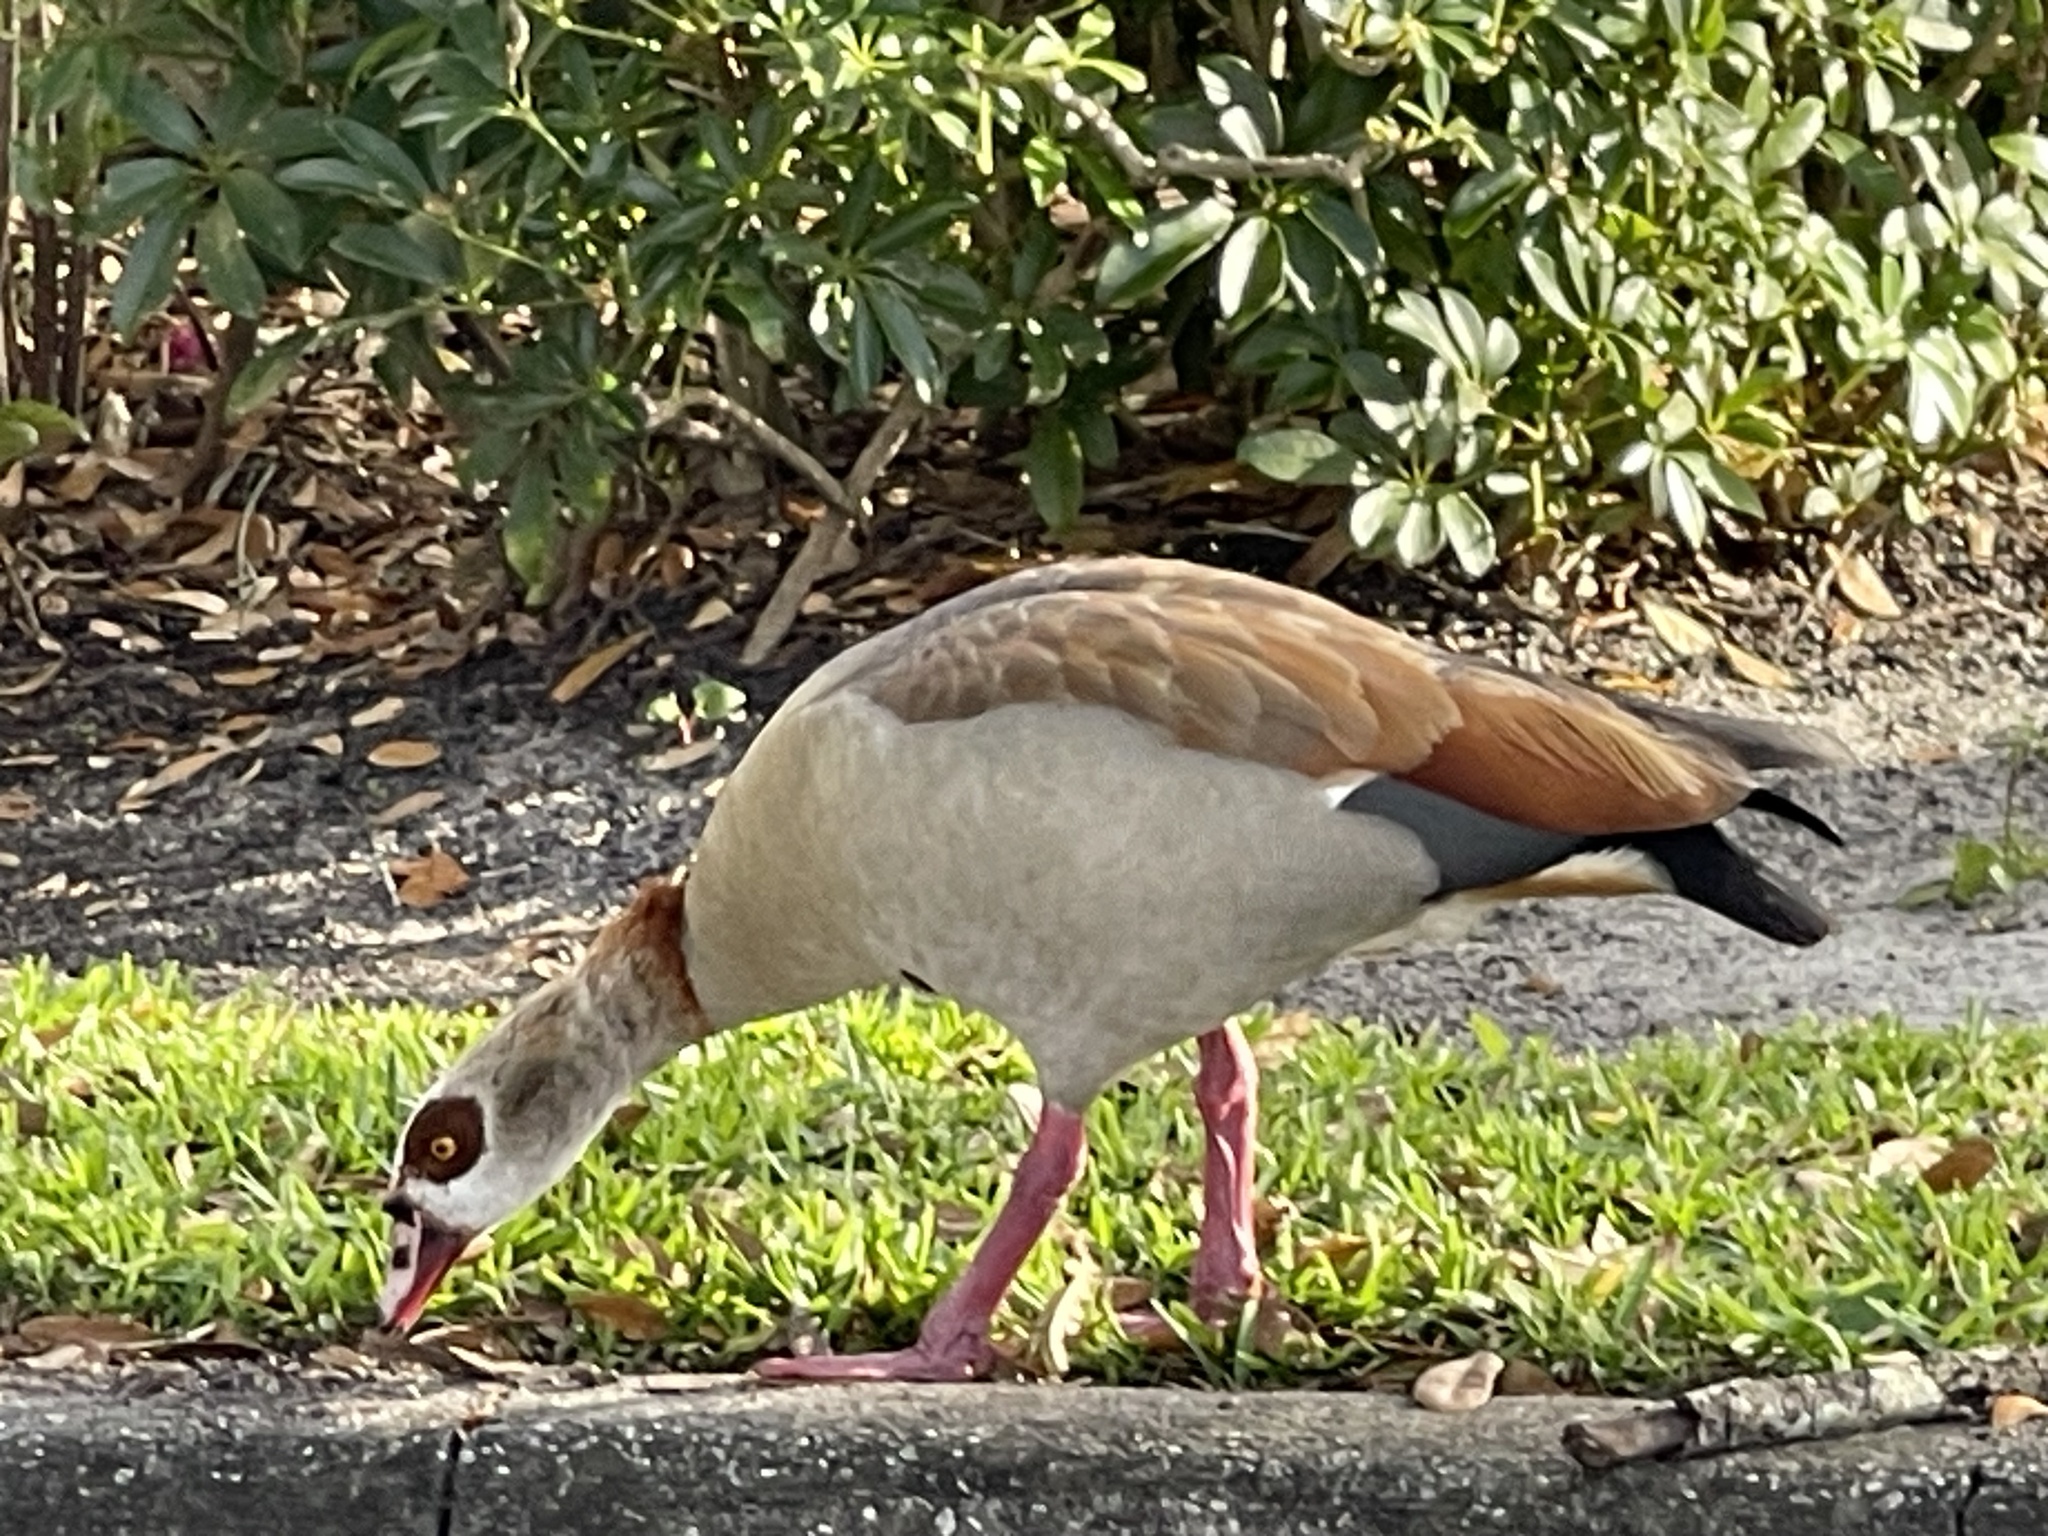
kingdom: Animalia
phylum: Chordata
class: Aves
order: Anseriformes
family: Anatidae
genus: Alopochen
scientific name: Alopochen aegyptiaca
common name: Egyptian goose
